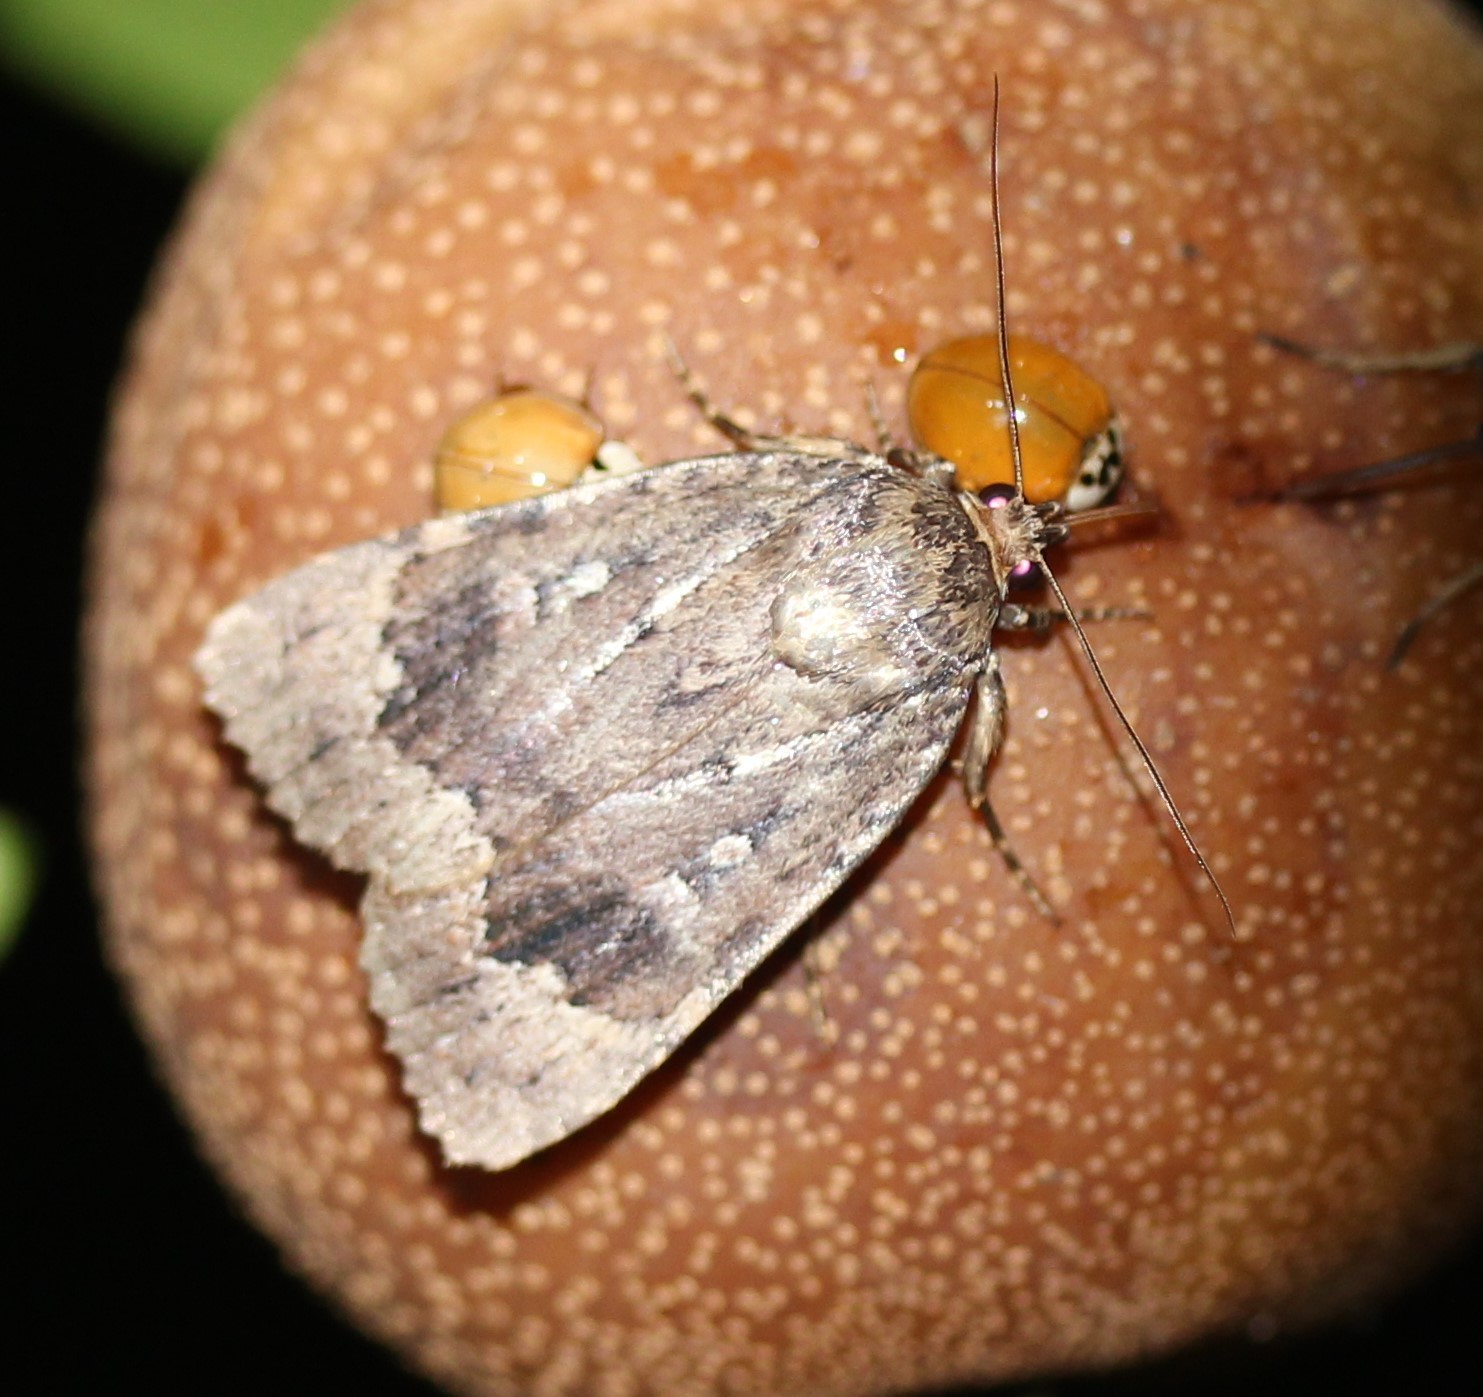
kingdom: Animalia
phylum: Arthropoda
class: Insecta
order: Lepidoptera
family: Noctuidae
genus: Amphipyra
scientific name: Amphipyra pyramidoides
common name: American copper underwing
